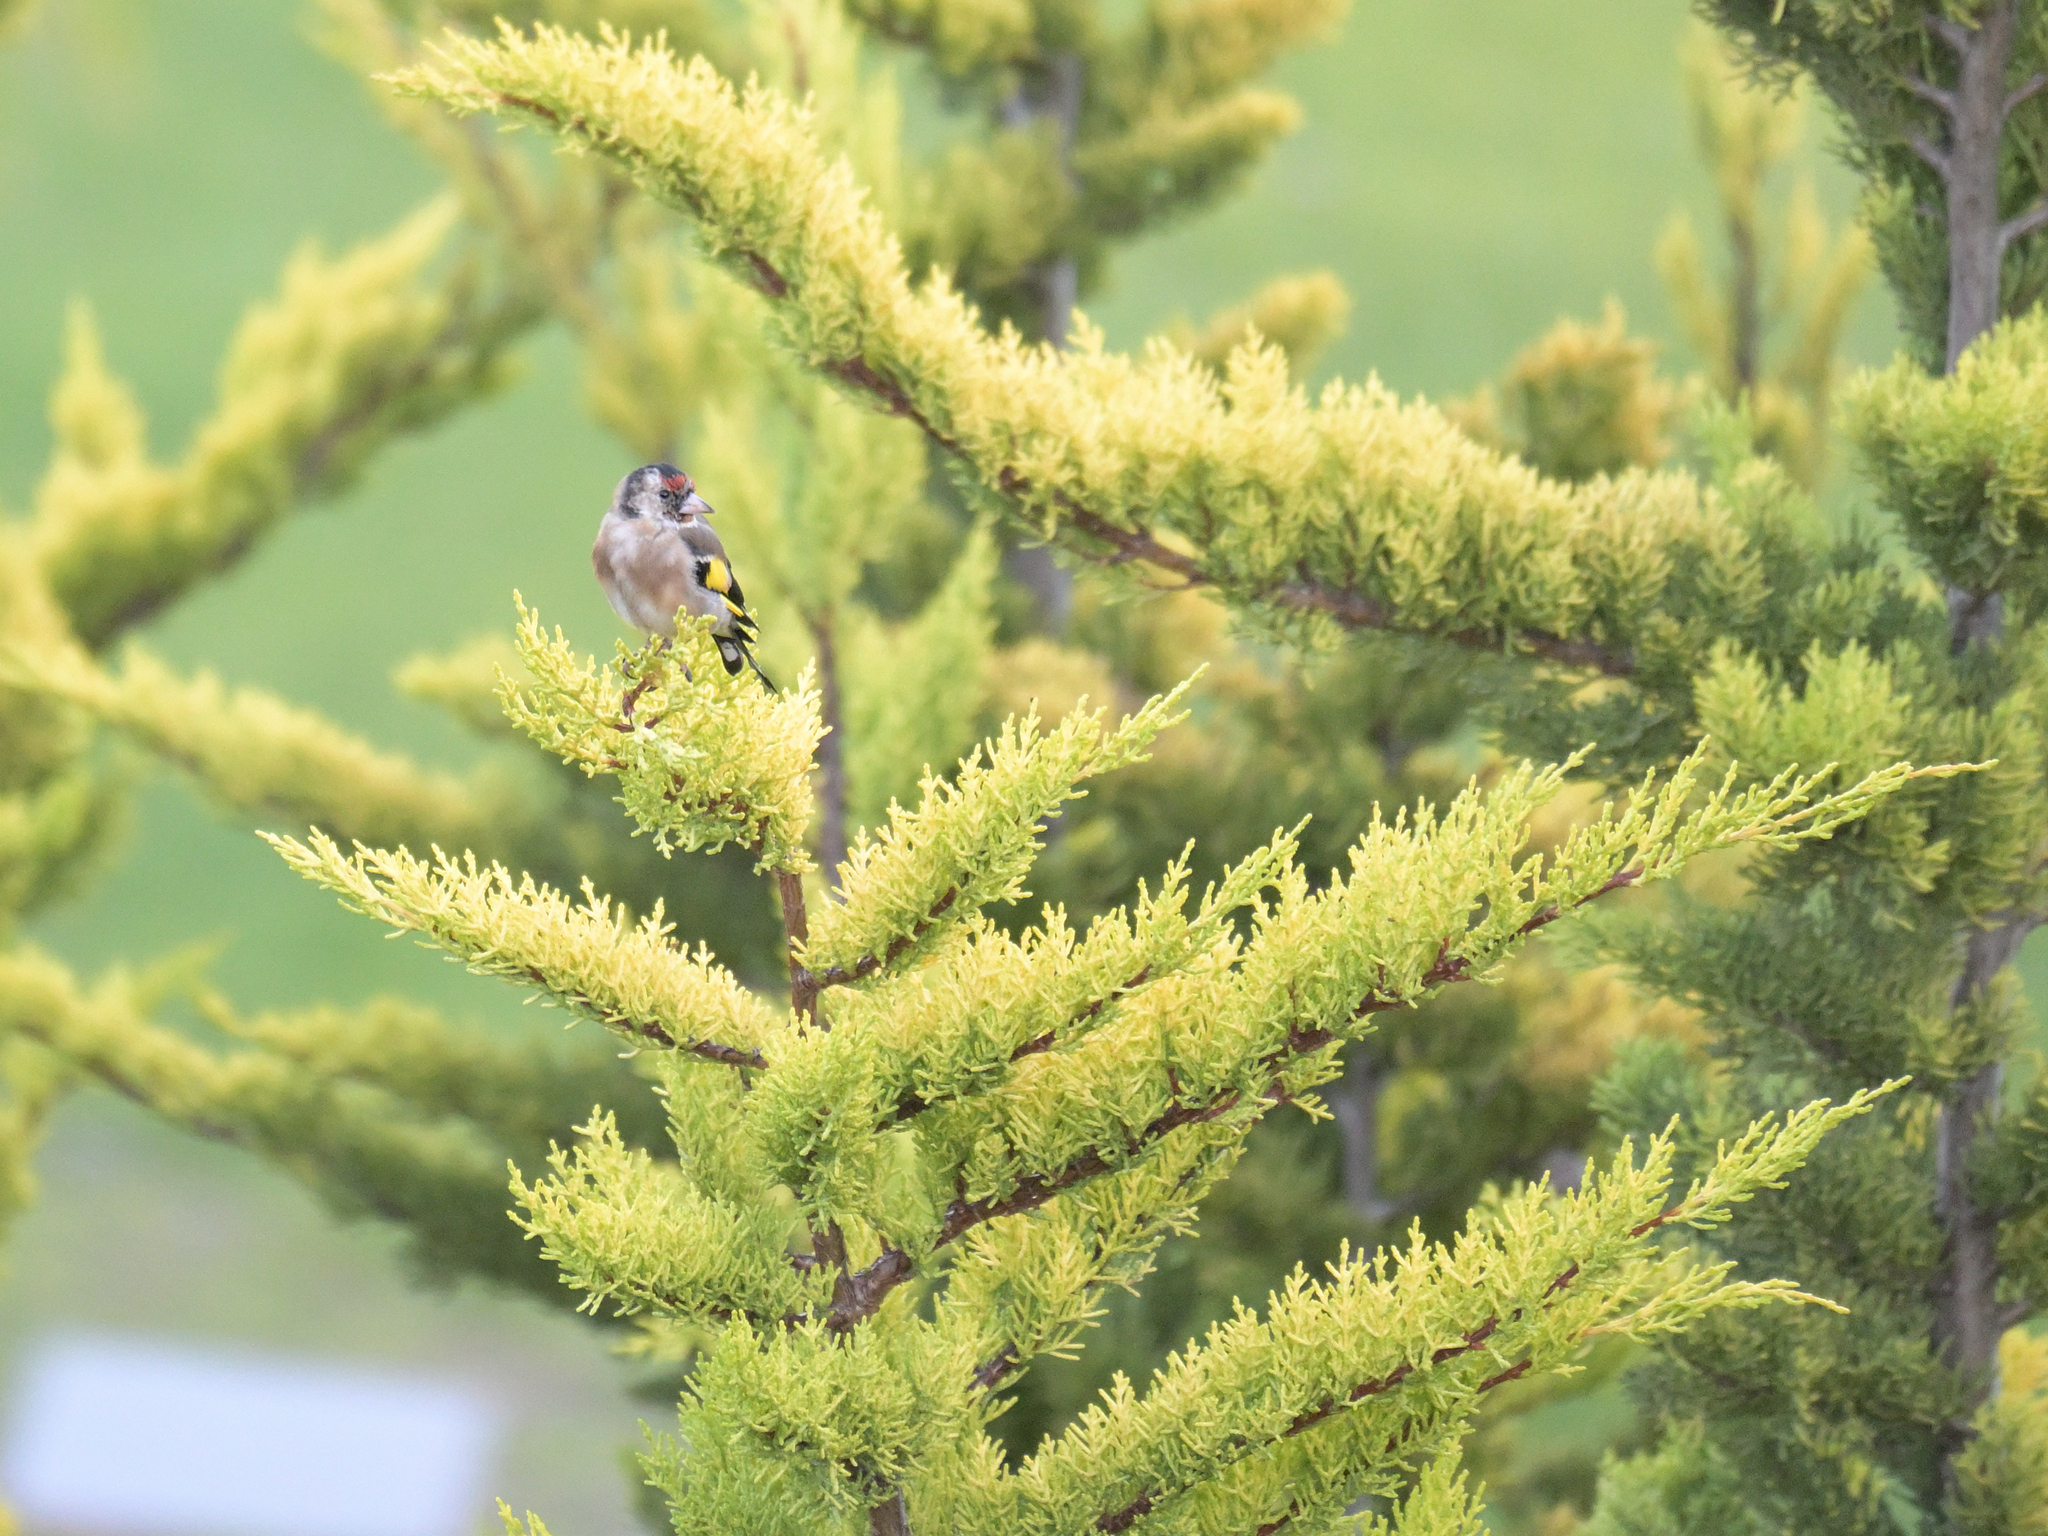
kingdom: Animalia
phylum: Chordata
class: Aves
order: Passeriformes
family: Fringillidae
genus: Carduelis
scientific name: Carduelis carduelis
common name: European goldfinch
